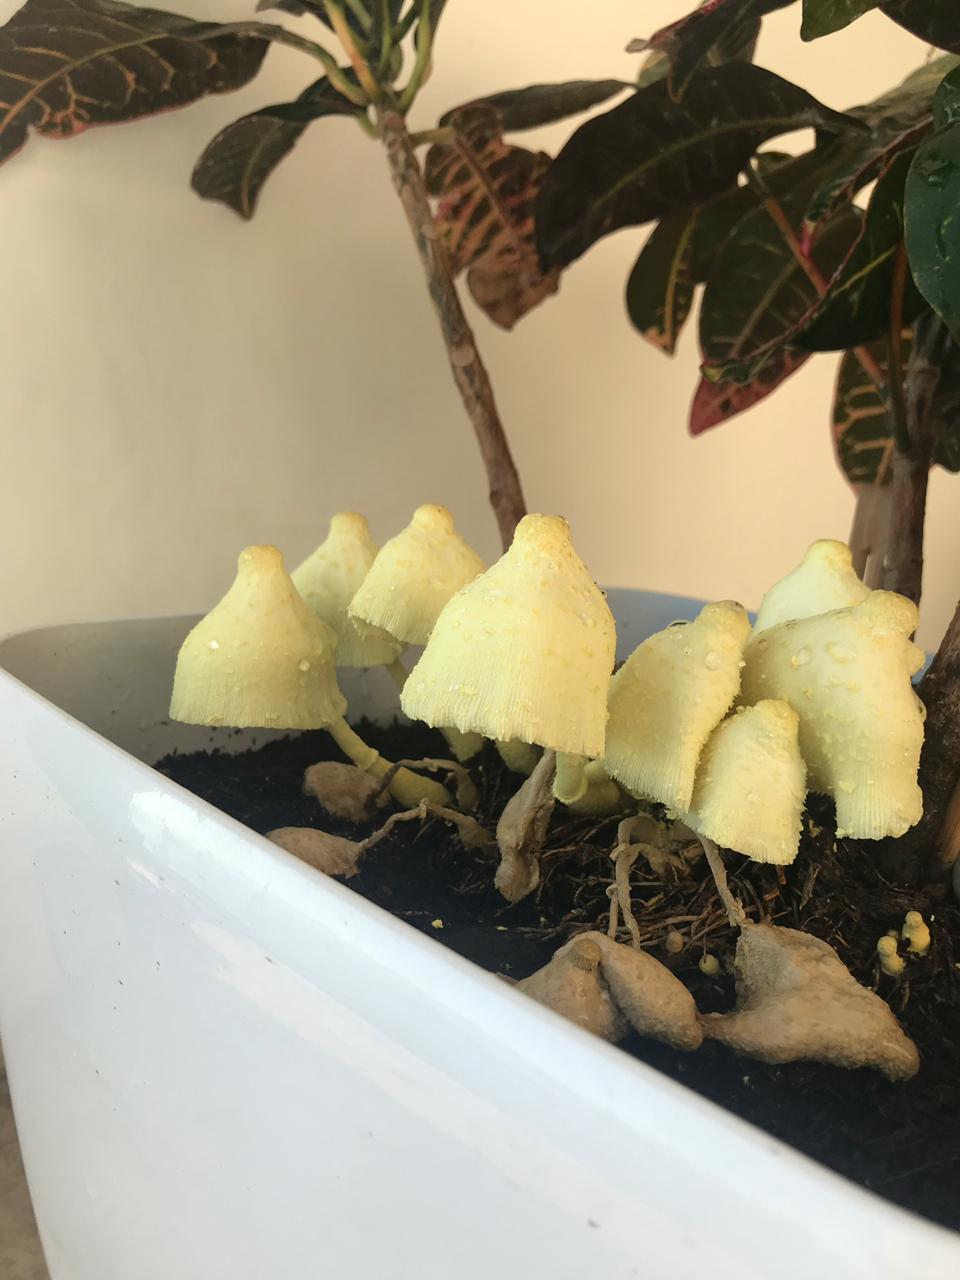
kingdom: Fungi
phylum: Basidiomycota
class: Agaricomycetes
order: Agaricales
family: Agaricaceae
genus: Leucocoprinus
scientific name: Leucocoprinus birnbaumii
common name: Plantpot dapperling
